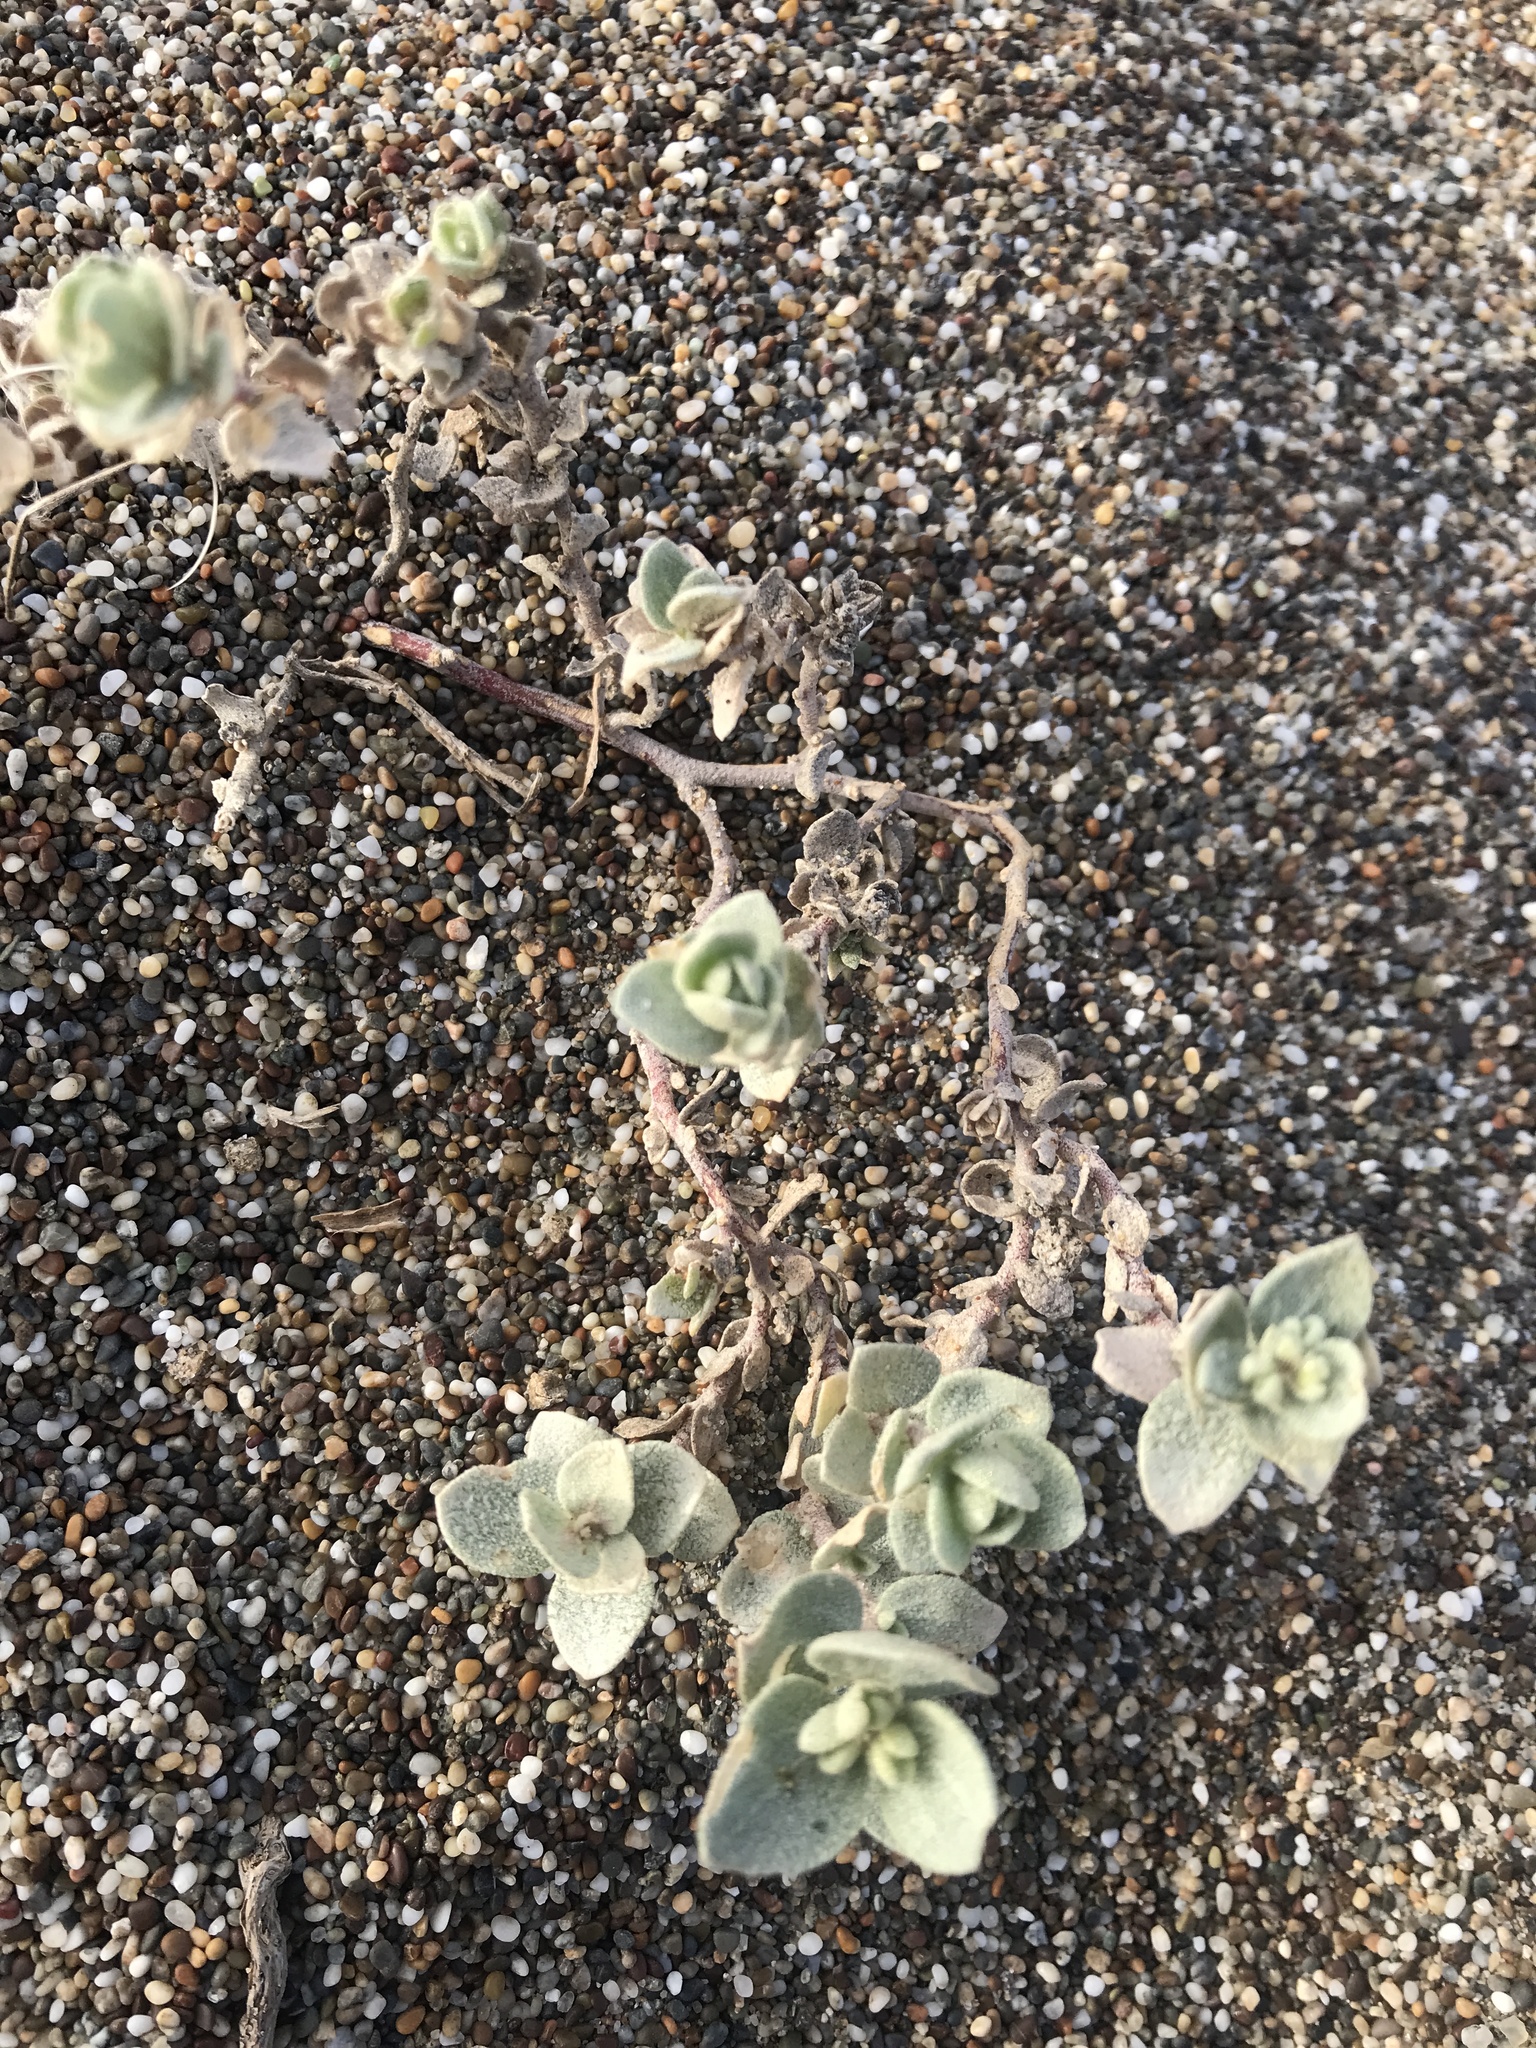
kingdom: Plantae
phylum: Tracheophyta
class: Magnoliopsida
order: Caryophyllales
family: Amaranthaceae
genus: Atriplex
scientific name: Atriplex leucophylla
